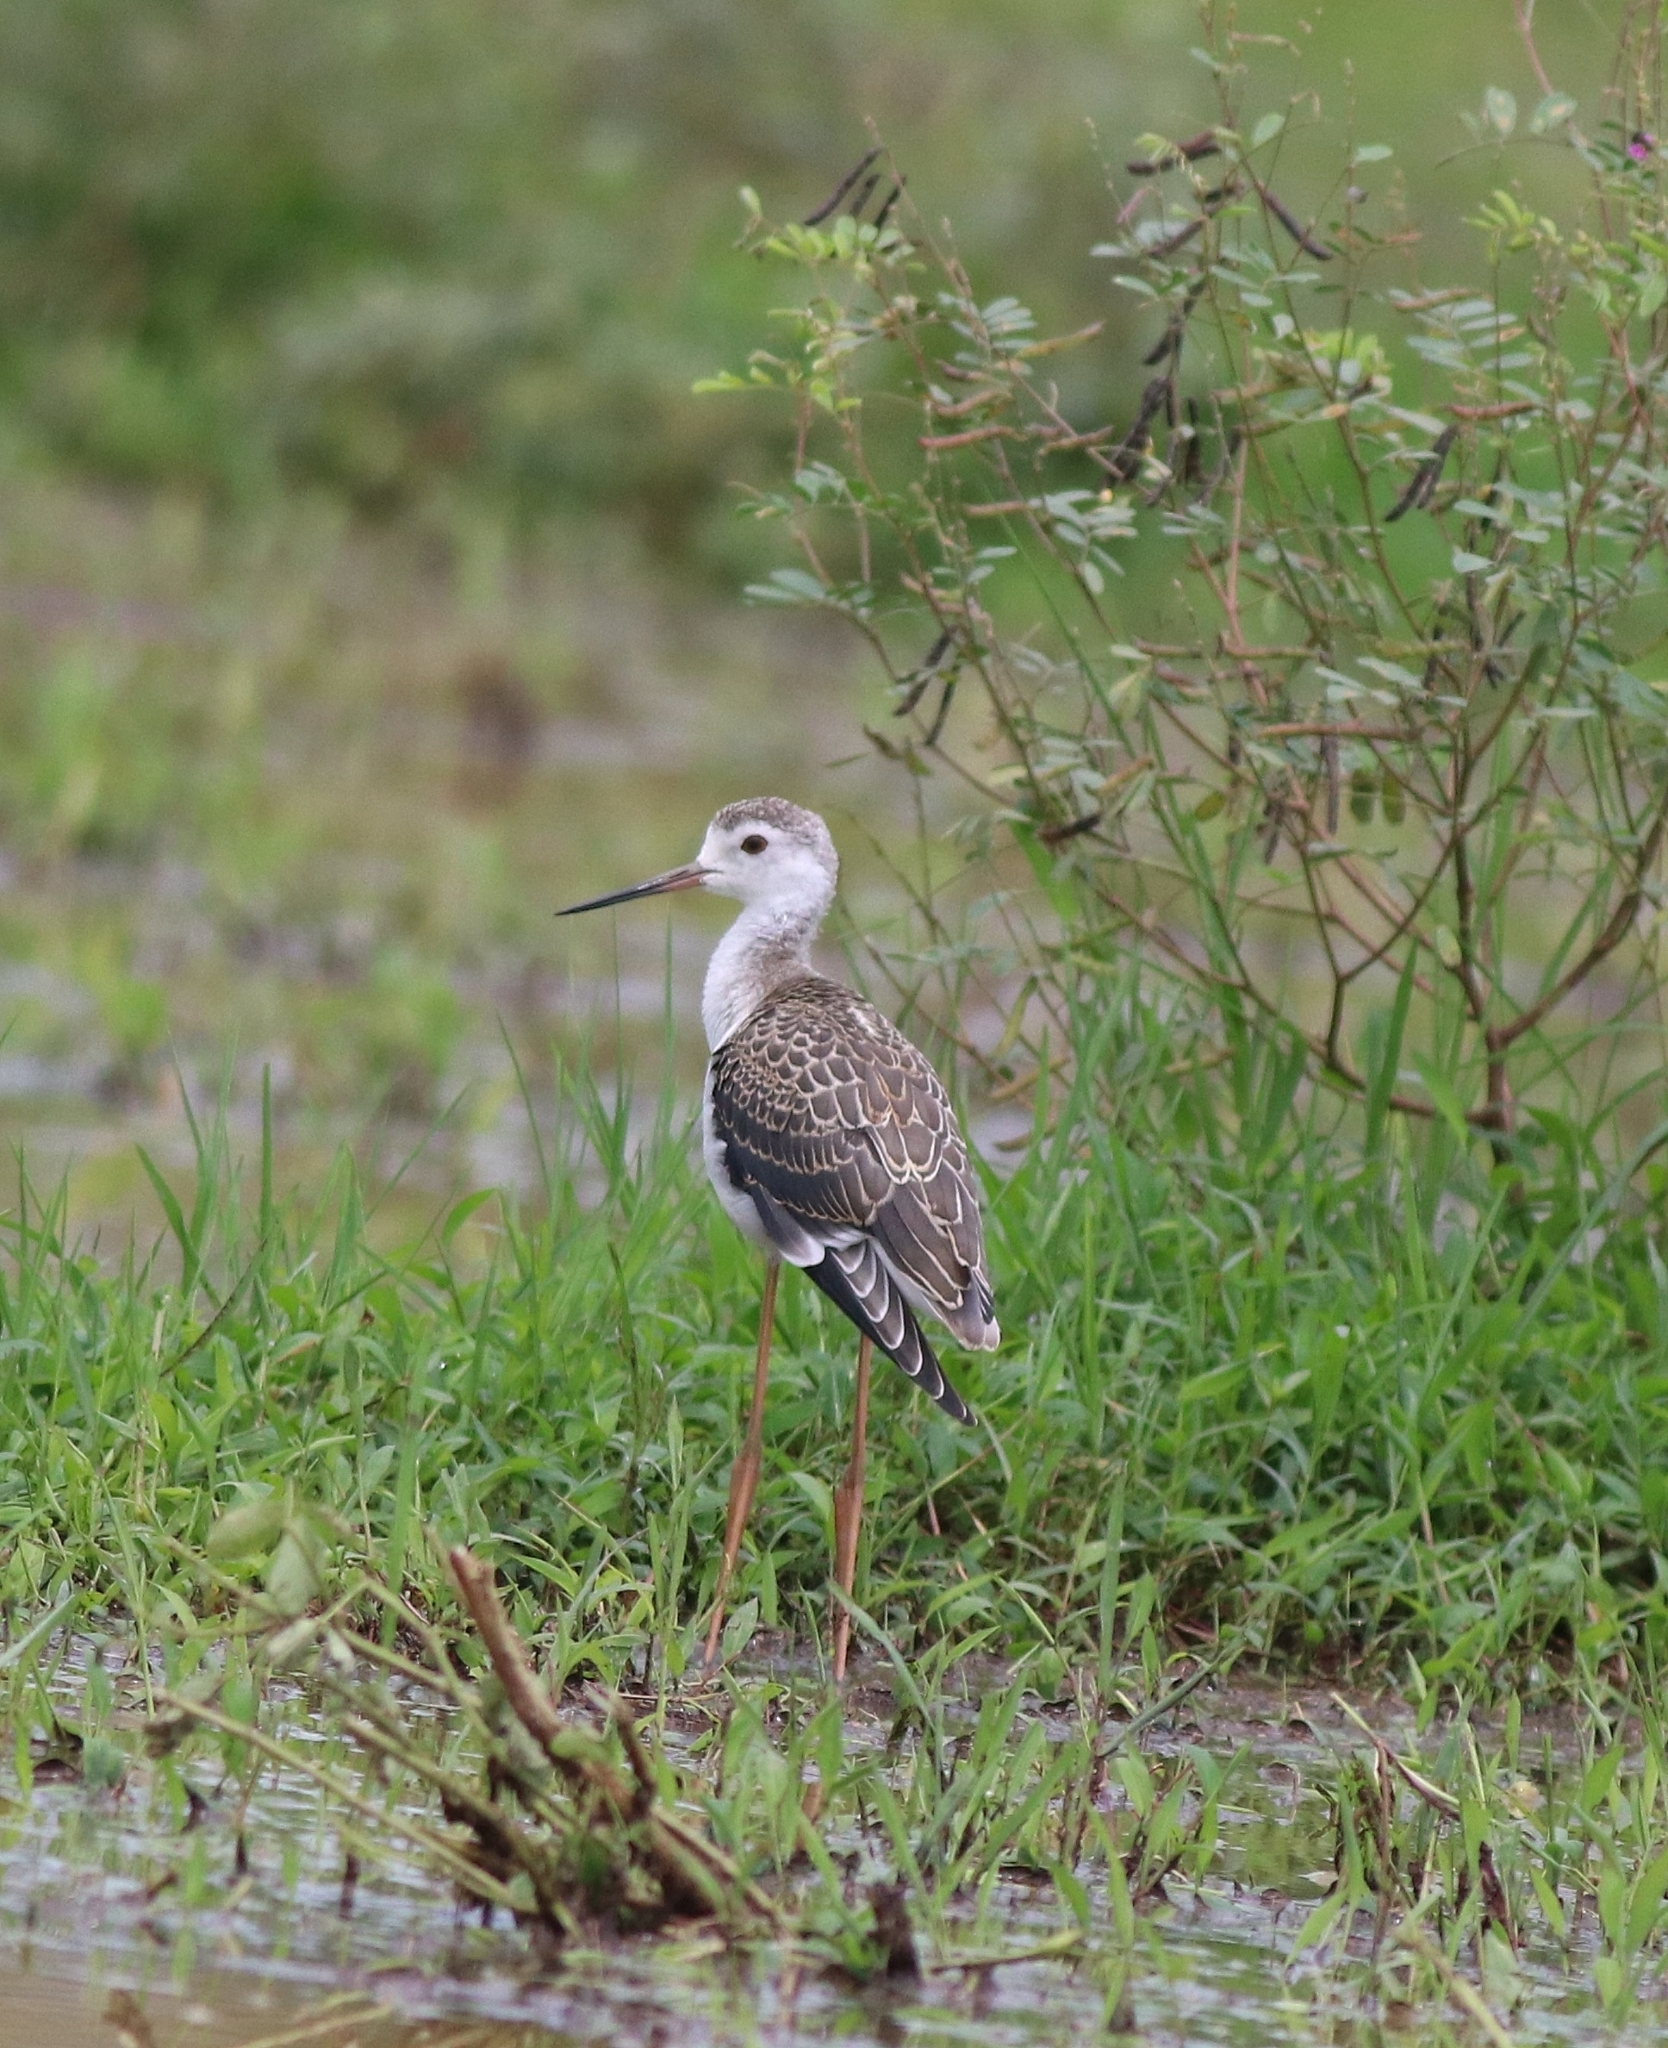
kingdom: Animalia
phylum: Chordata
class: Aves
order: Charadriiformes
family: Recurvirostridae
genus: Himantopus
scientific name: Himantopus himantopus
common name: Black-winged stilt
